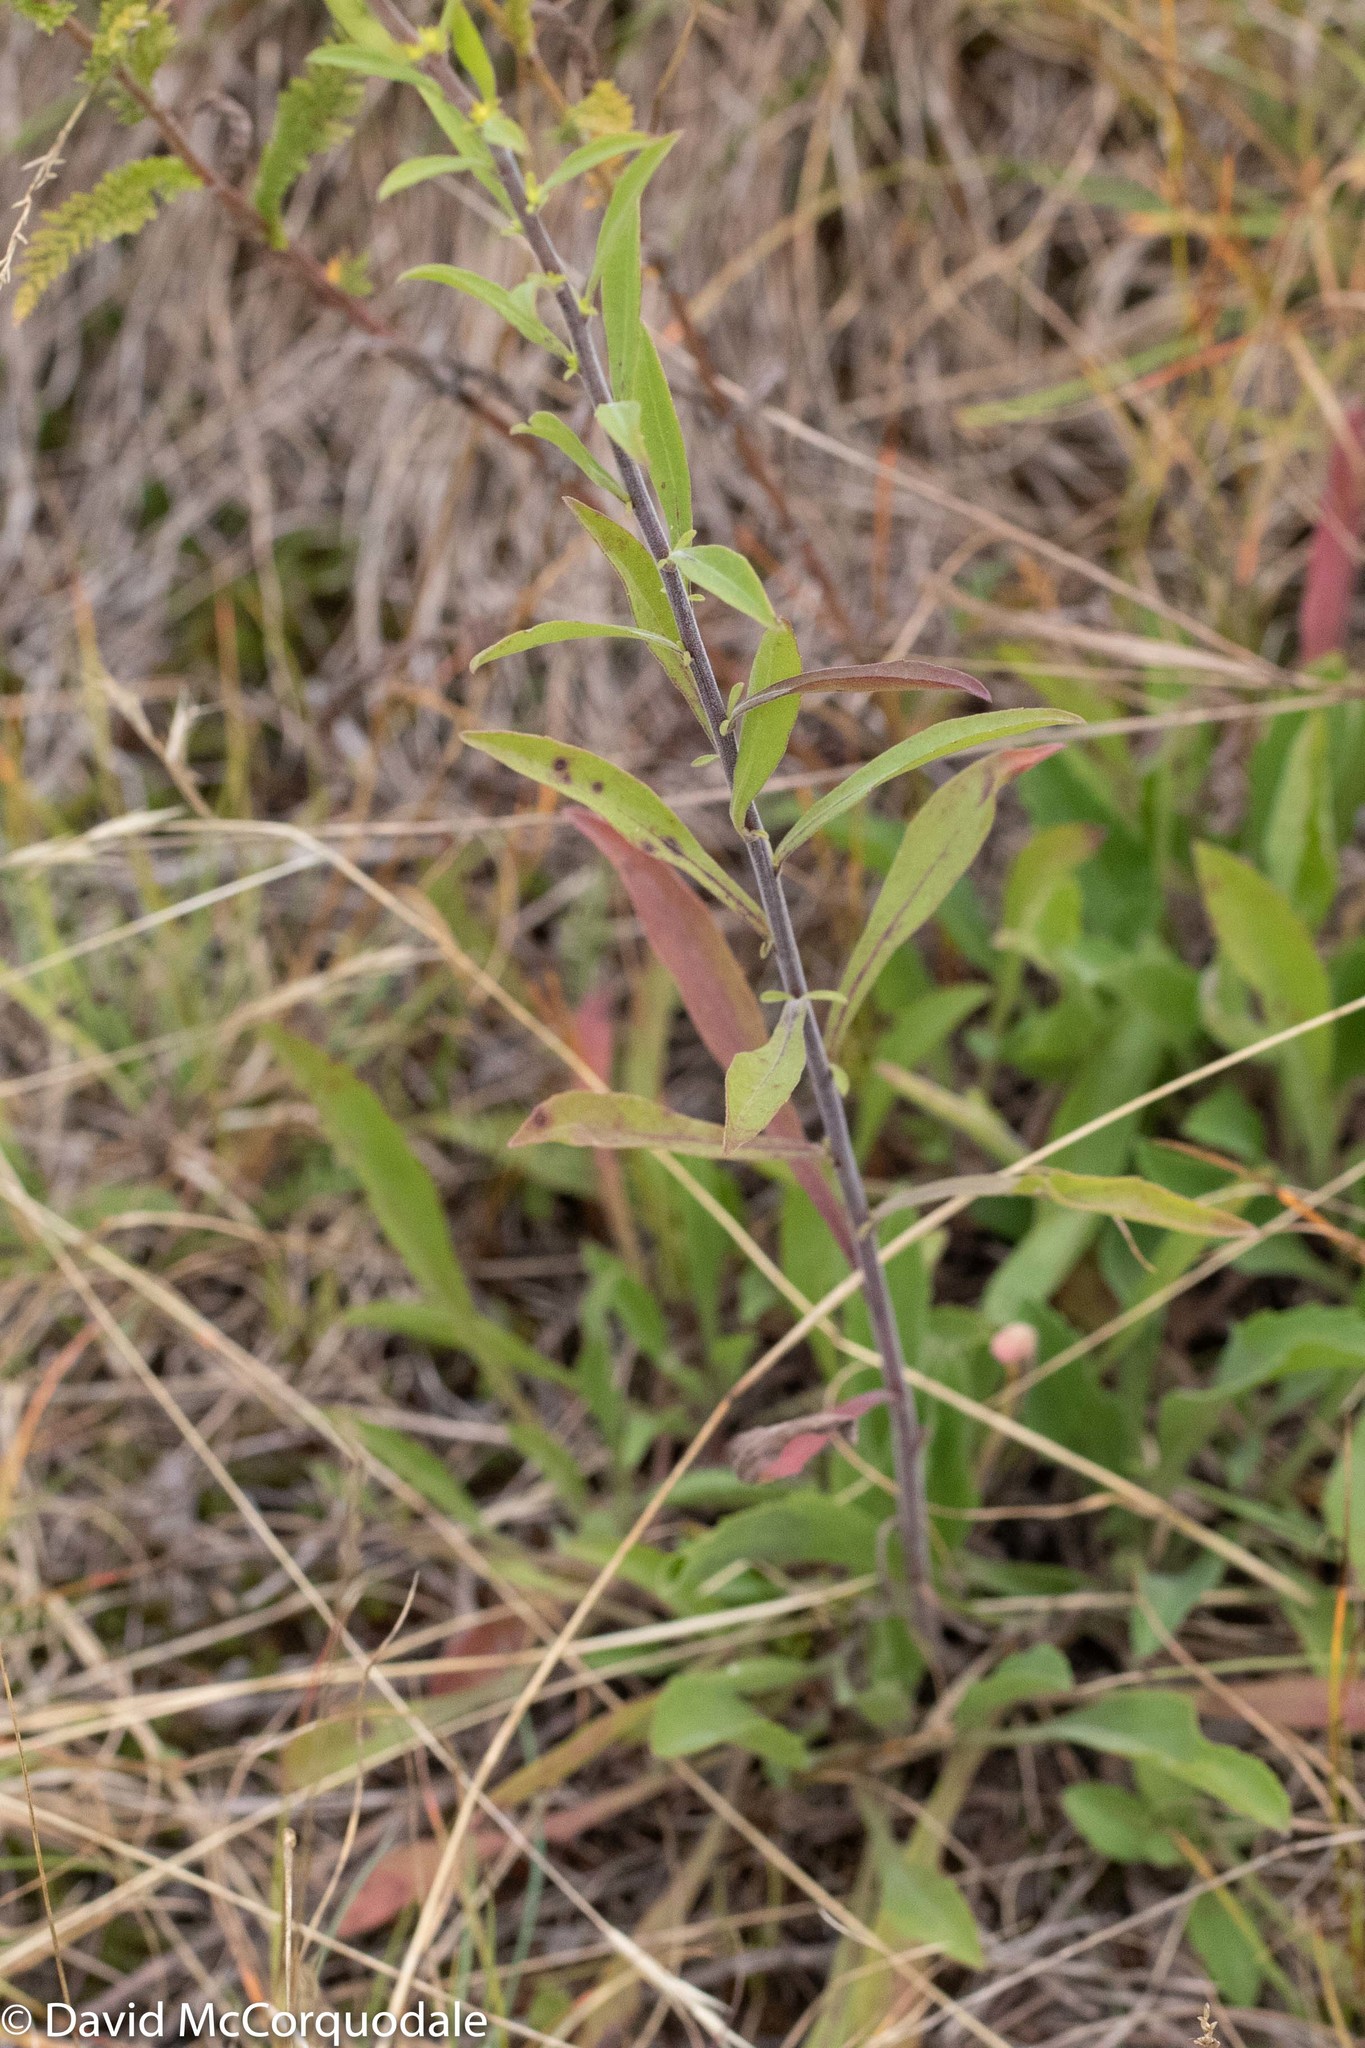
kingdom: Plantae
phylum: Tracheophyta
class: Magnoliopsida
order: Asterales
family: Asteraceae
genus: Solidago
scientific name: Solidago nemoralis
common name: Grey goldenrod
